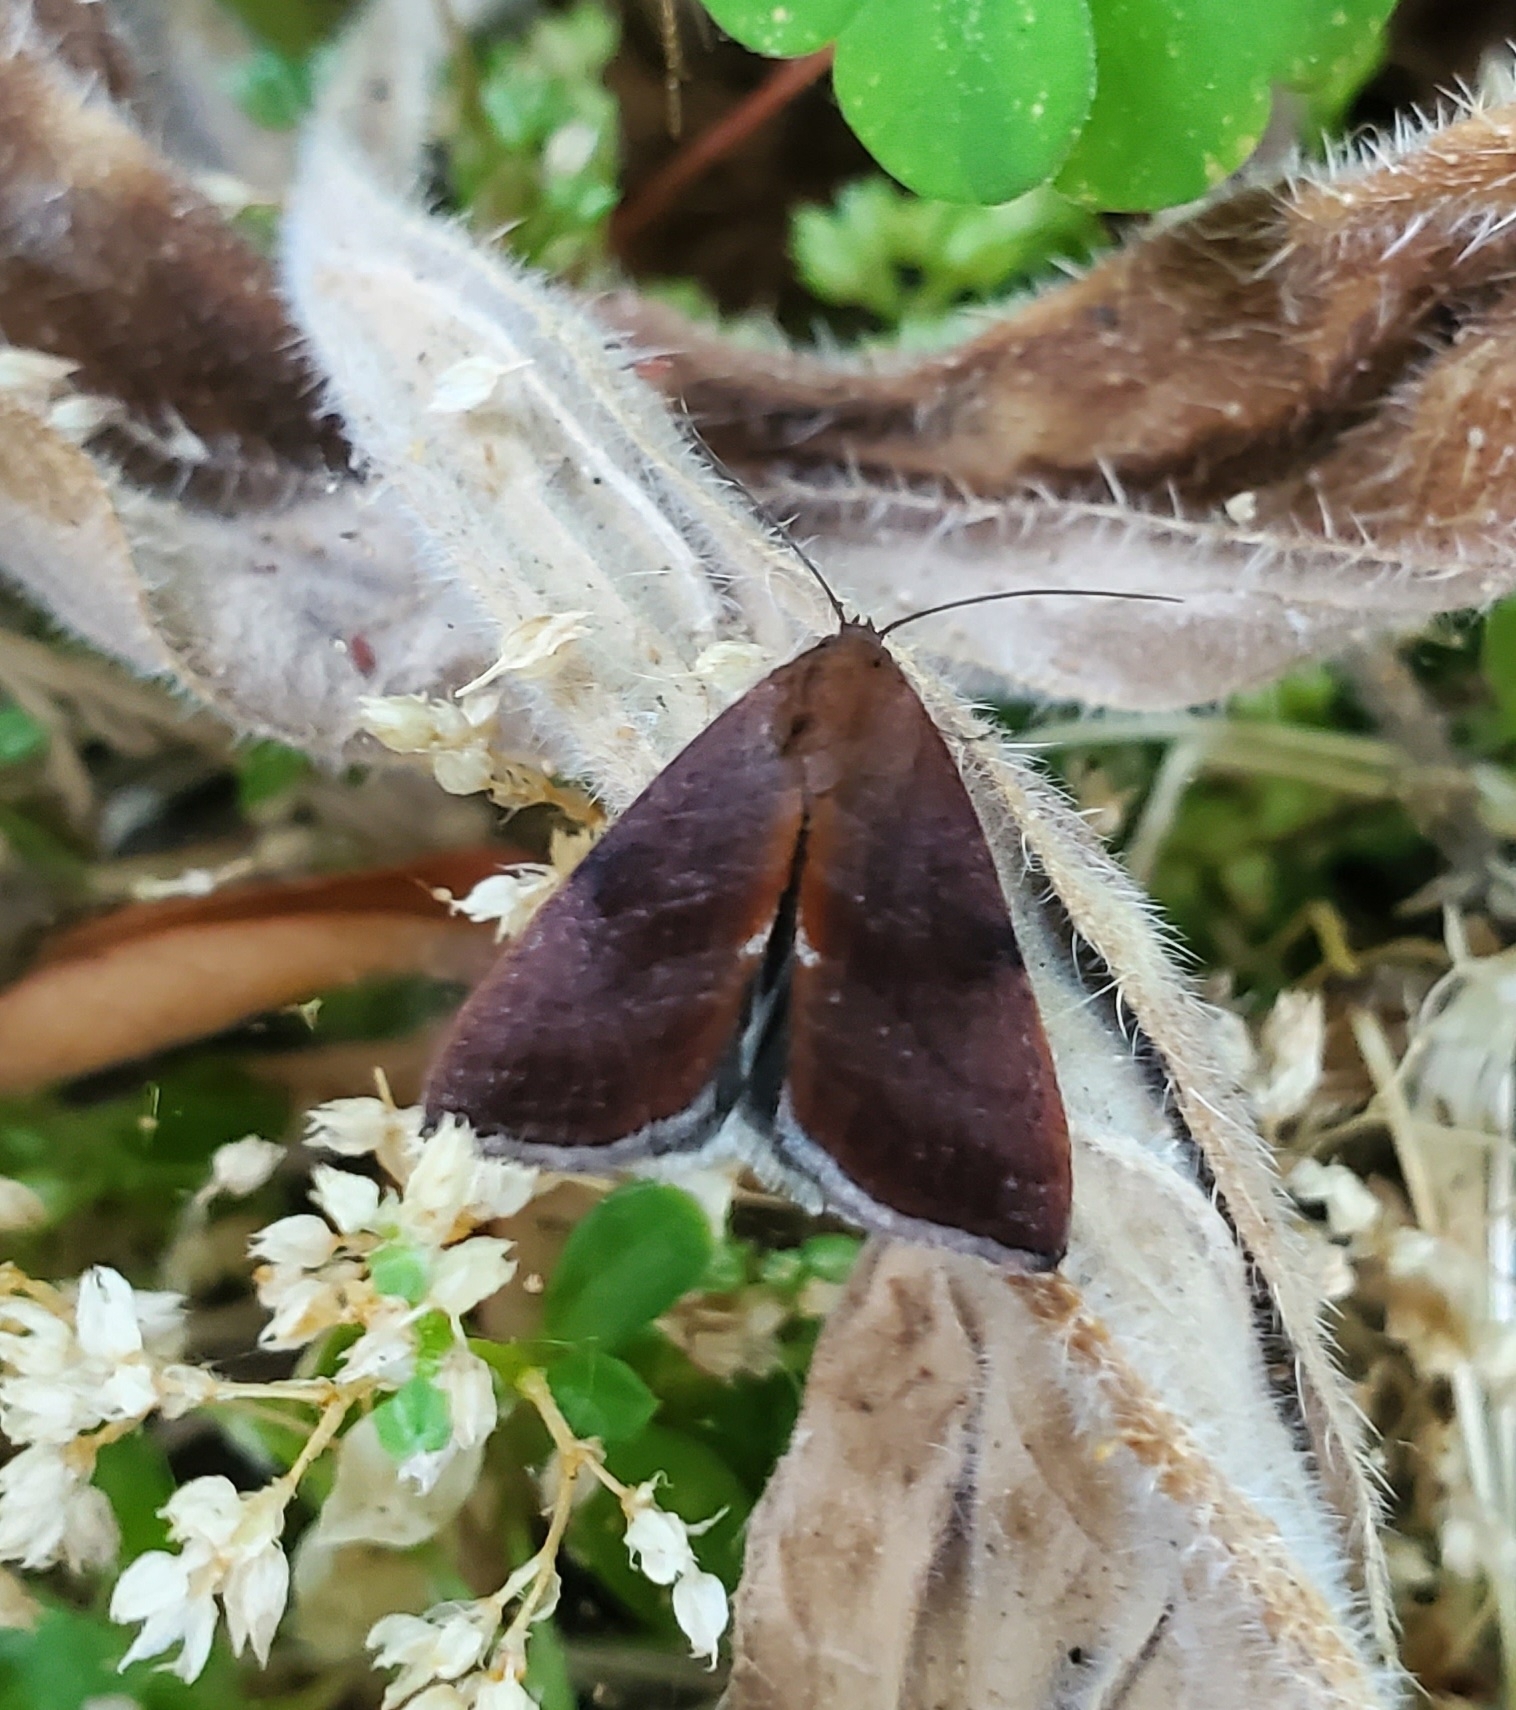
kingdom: Animalia
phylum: Arthropoda
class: Insecta
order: Lepidoptera
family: Noctuidae
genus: Galgula
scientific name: Galgula partita
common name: Wedgeling
